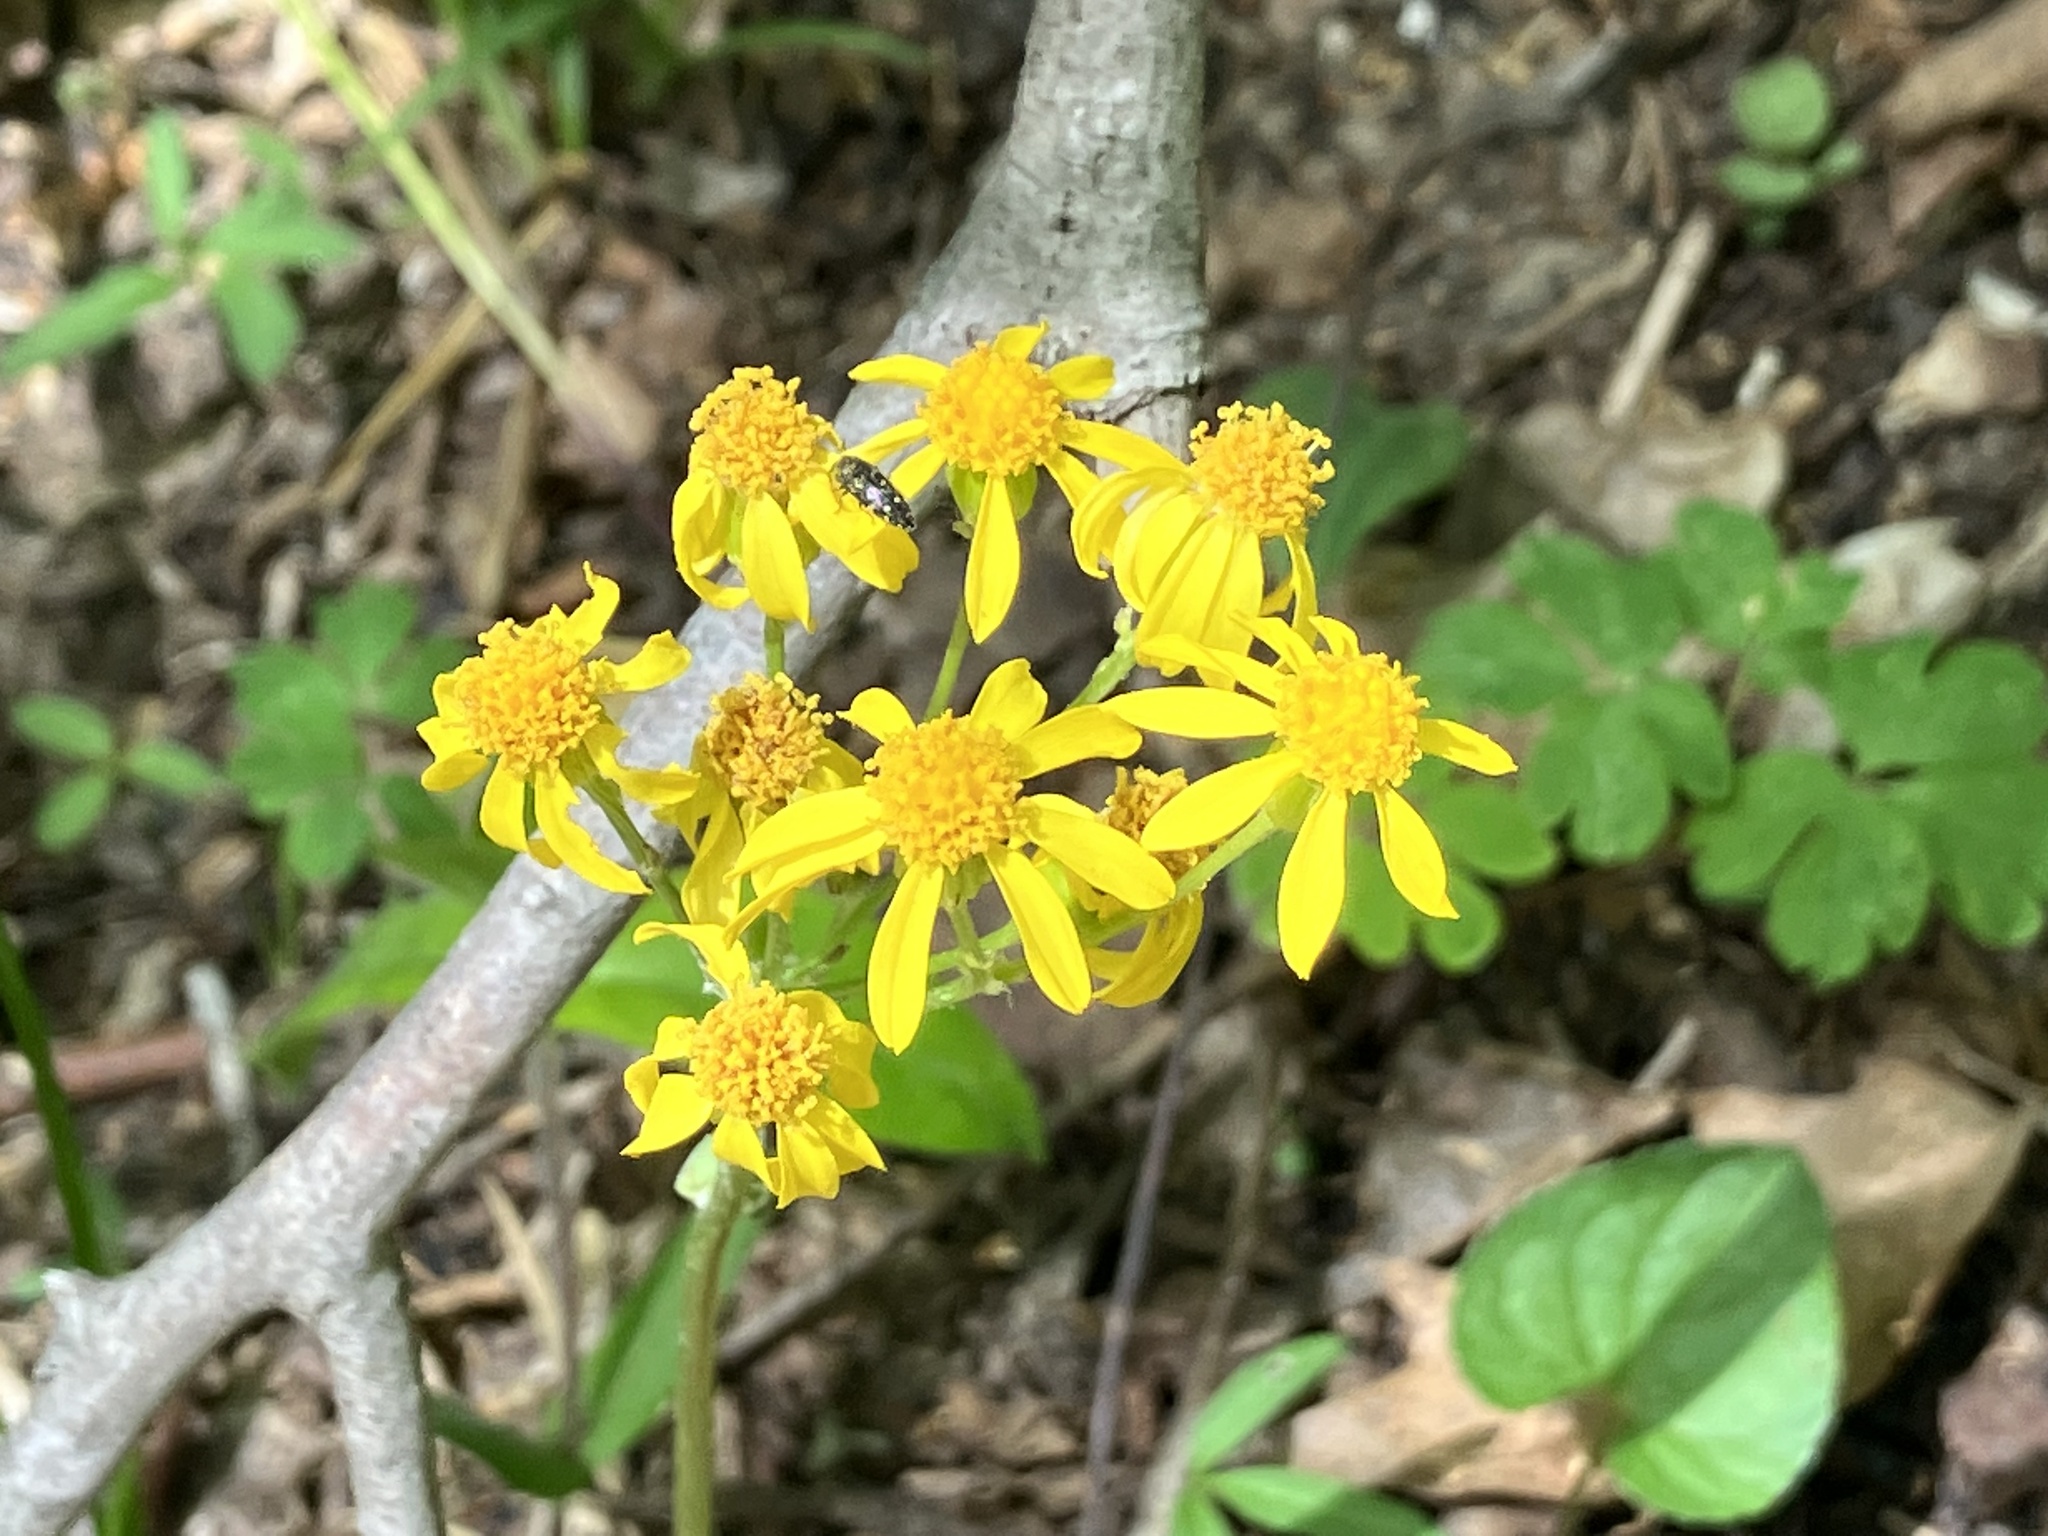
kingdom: Plantae
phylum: Tracheophyta
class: Magnoliopsida
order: Asterales
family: Asteraceae
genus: Packera
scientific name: Packera obovata
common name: Round-leaf ragwort
